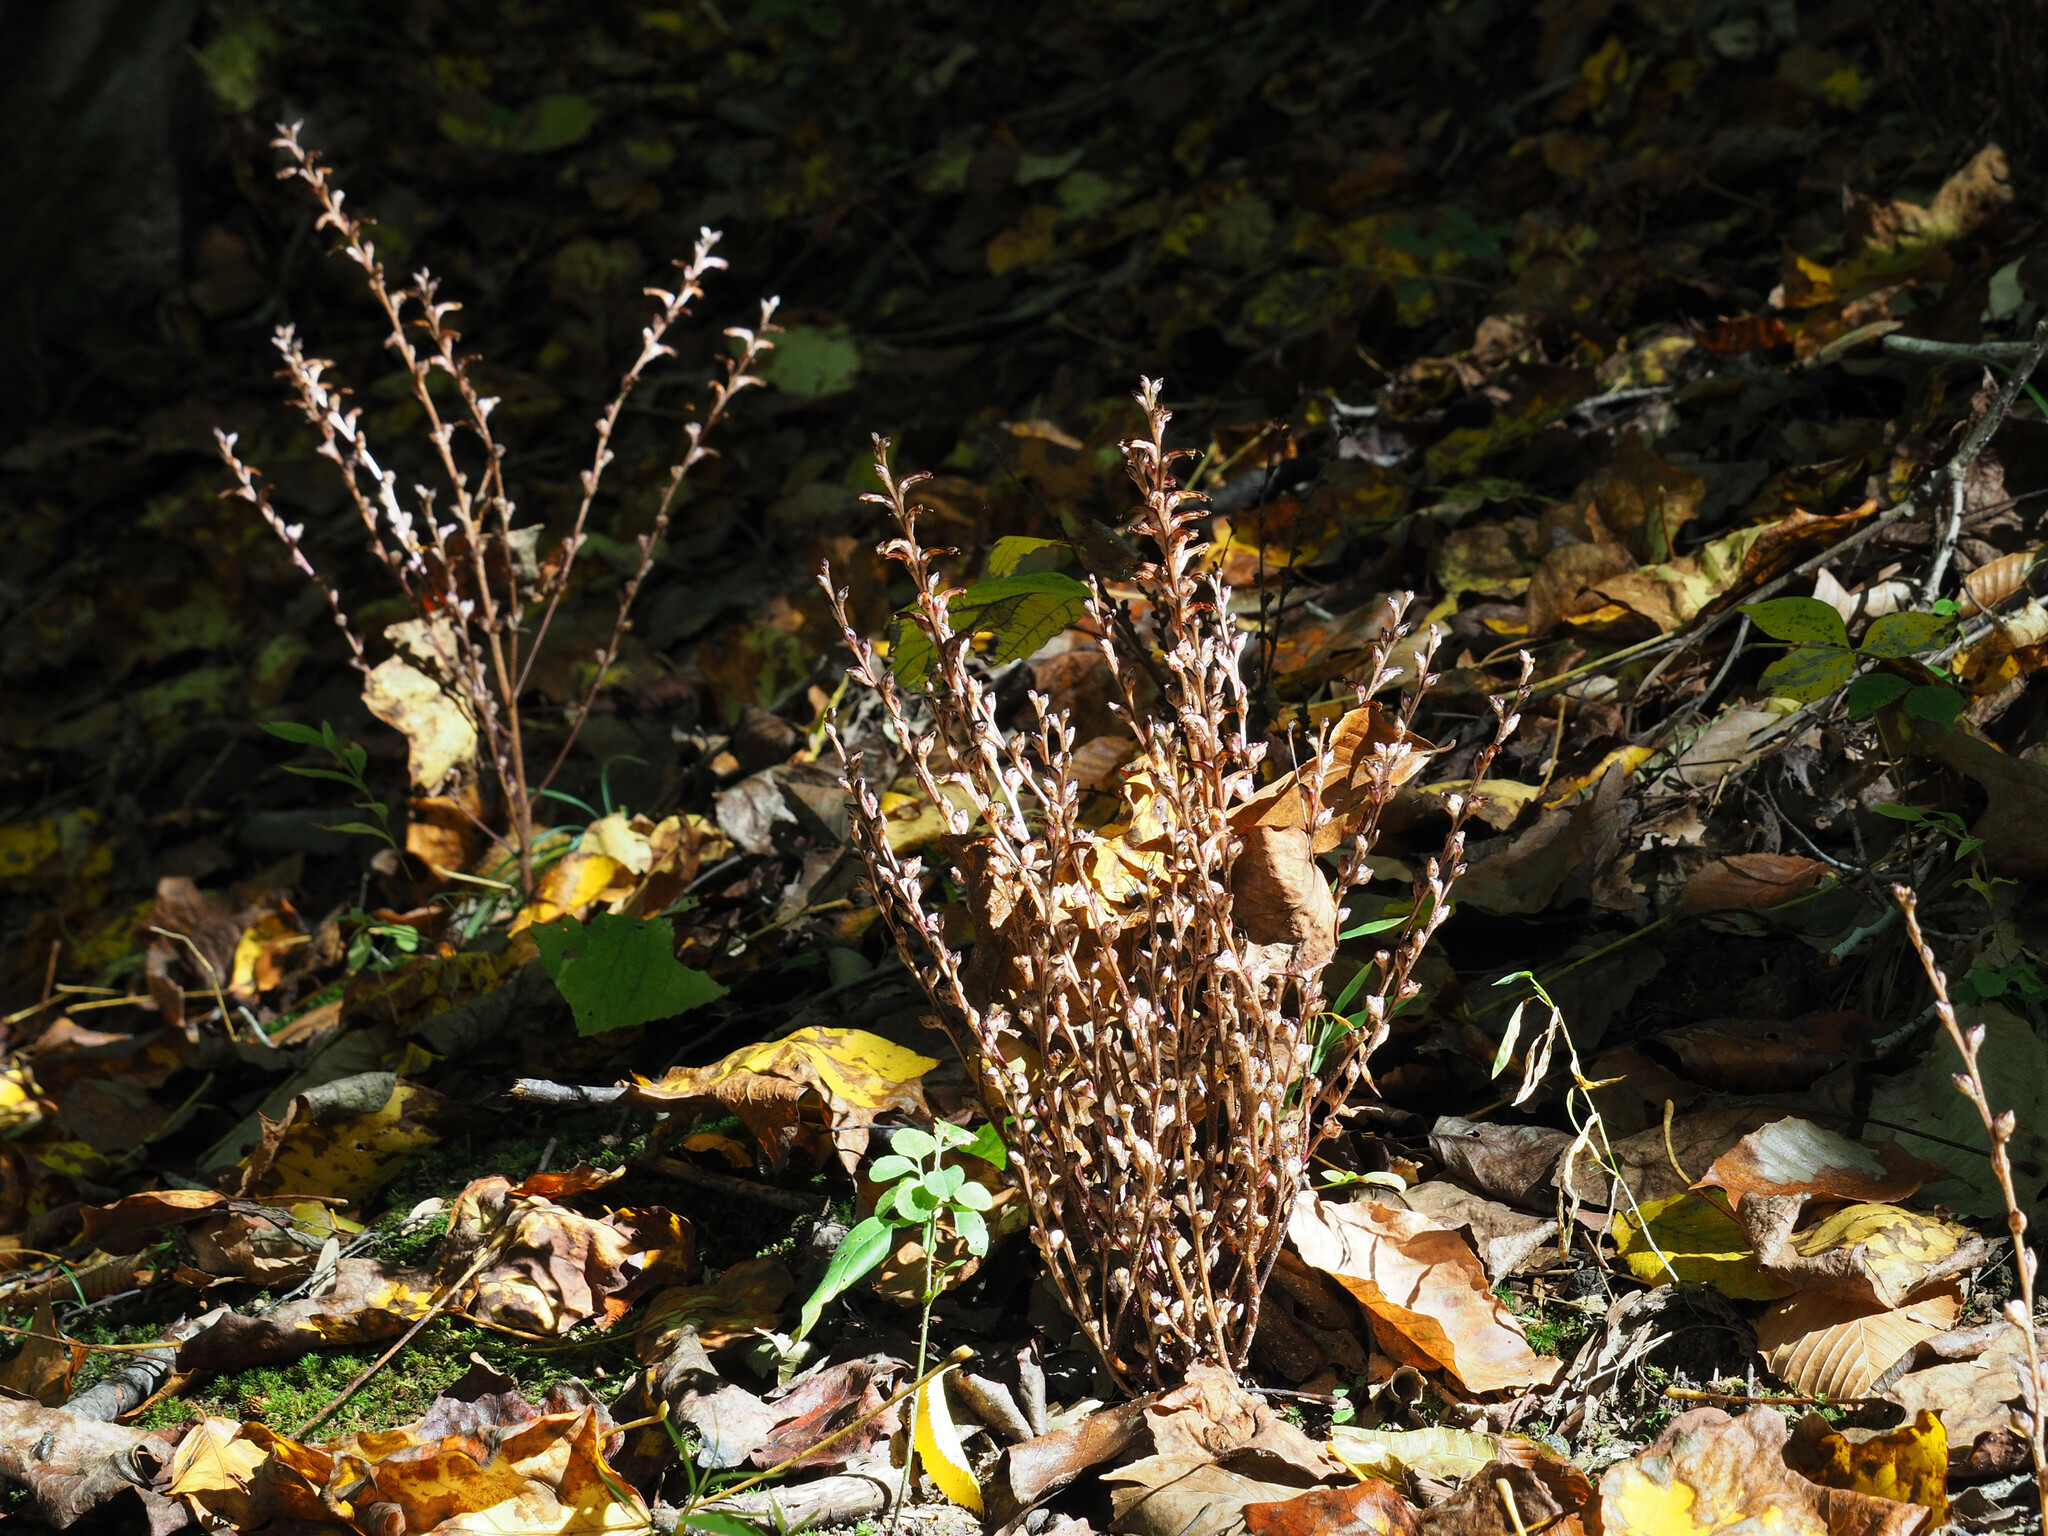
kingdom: Plantae
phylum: Tracheophyta
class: Magnoliopsida
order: Lamiales
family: Orobanchaceae
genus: Epifagus
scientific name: Epifagus virginiana
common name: Beechdrops
